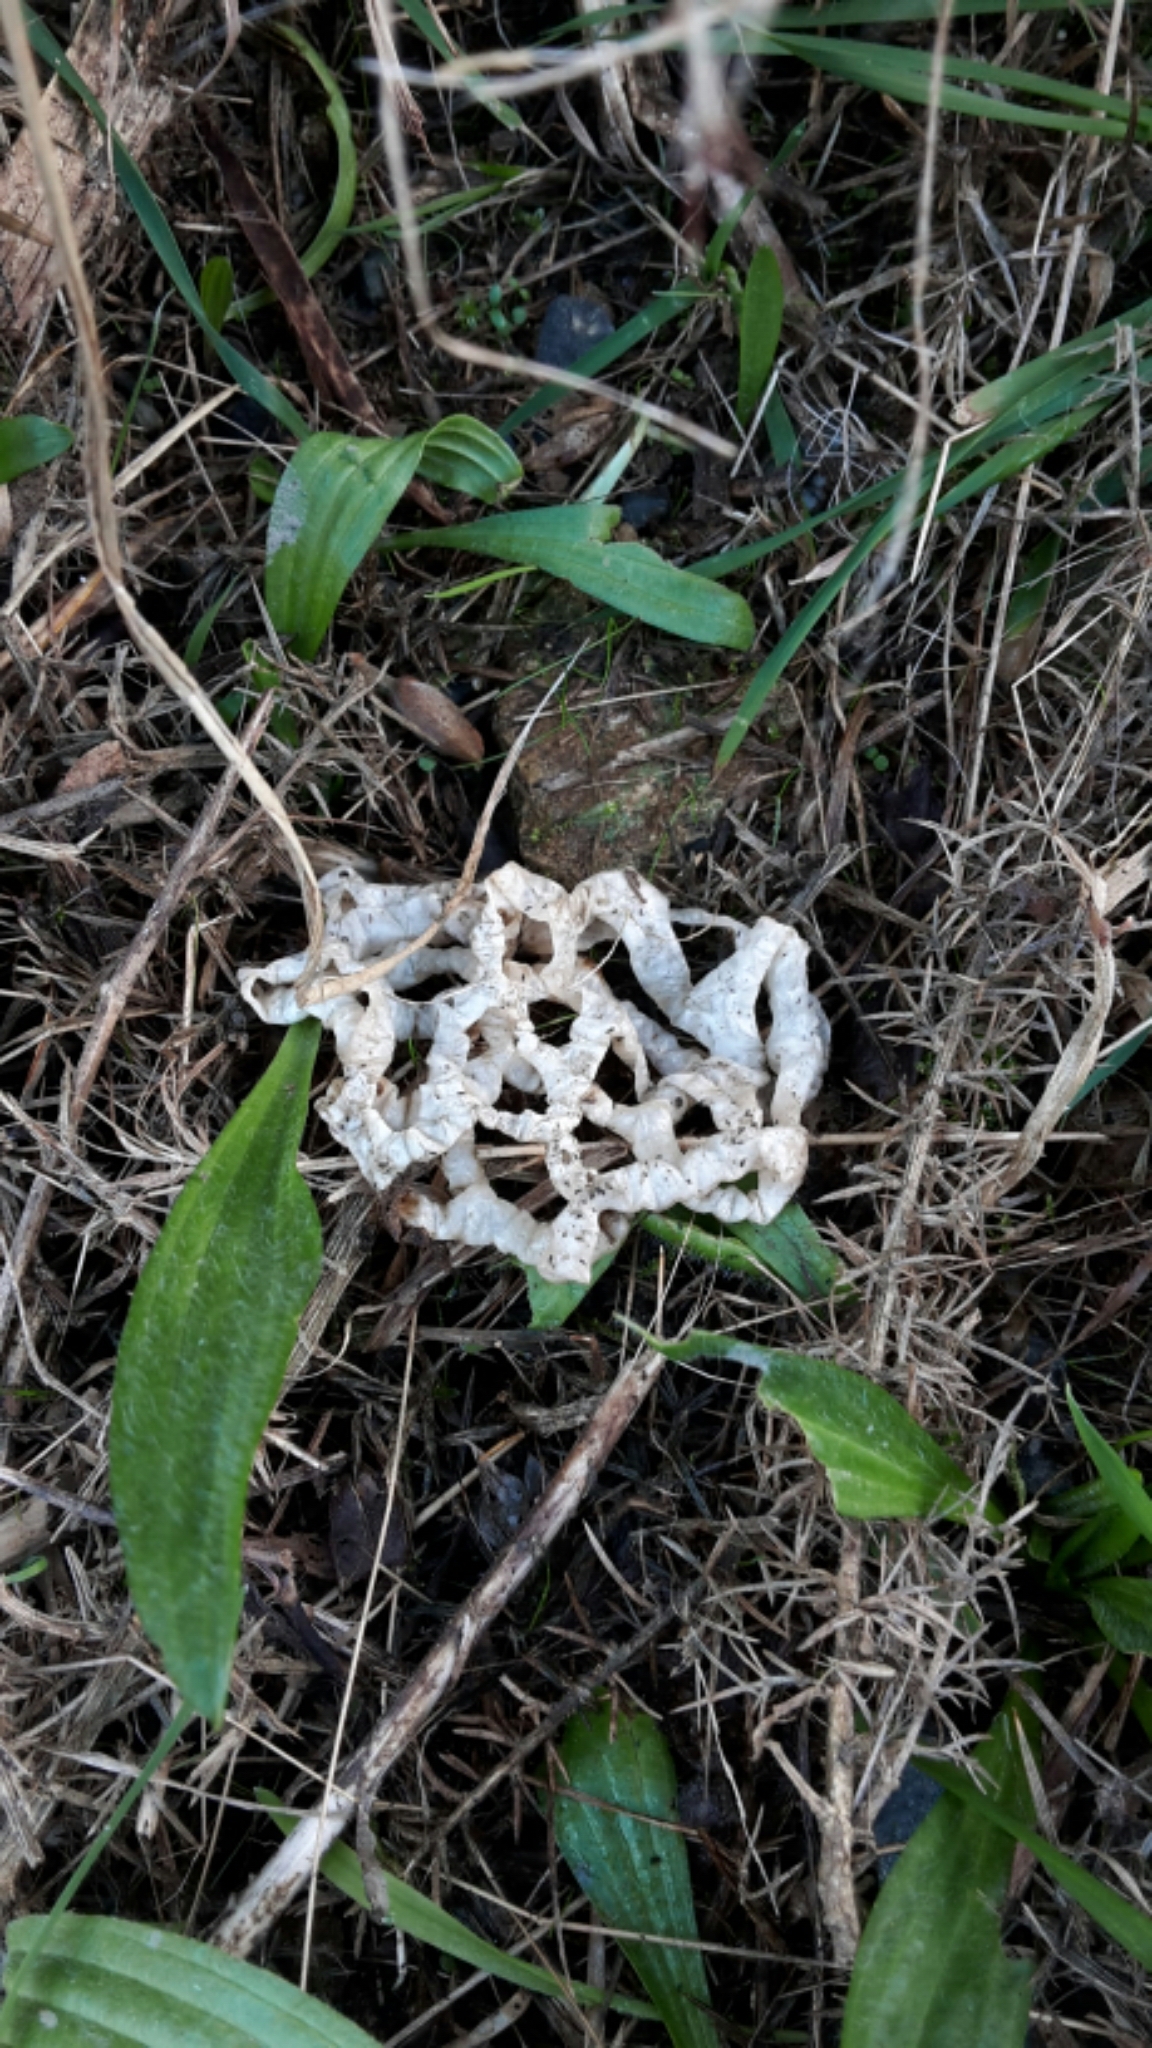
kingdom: Fungi
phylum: Basidiomycota
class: Agaricomycetes
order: Phallales
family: Phallaceae
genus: Ileodictyon
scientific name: Ileodictyon cibarium
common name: Basket fungus
